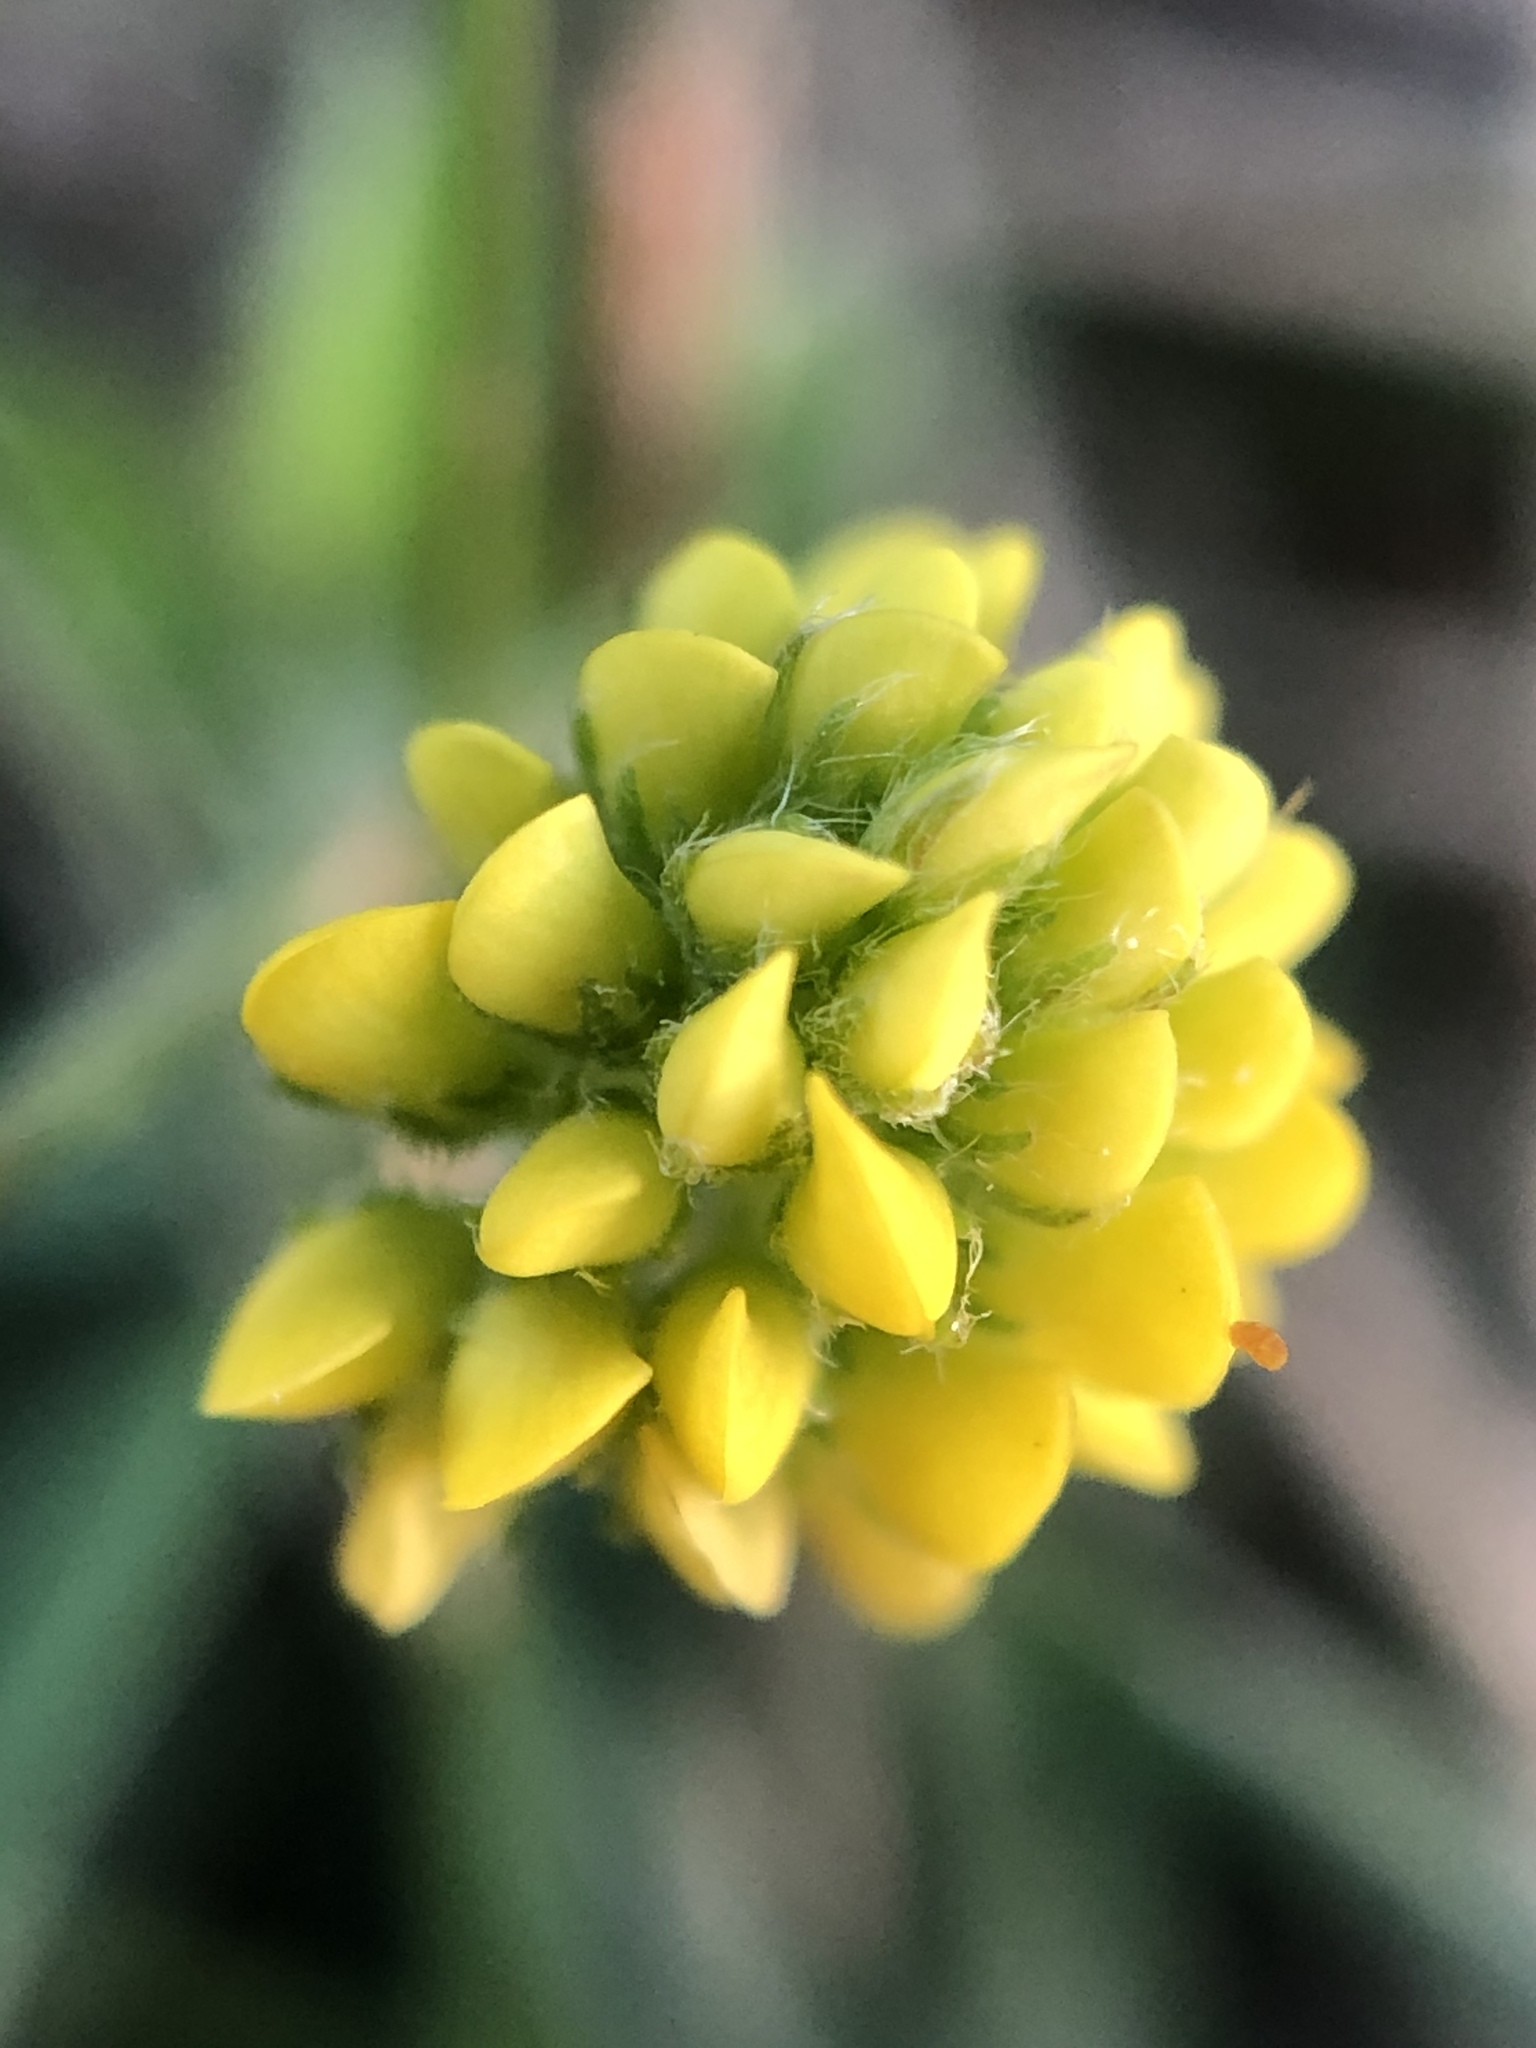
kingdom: Plantae
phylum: Tracheophyta
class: Magnoliopsida
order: Fabales
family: Fabaceae
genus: Medicago
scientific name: Medicago lupulina
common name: Black medick
